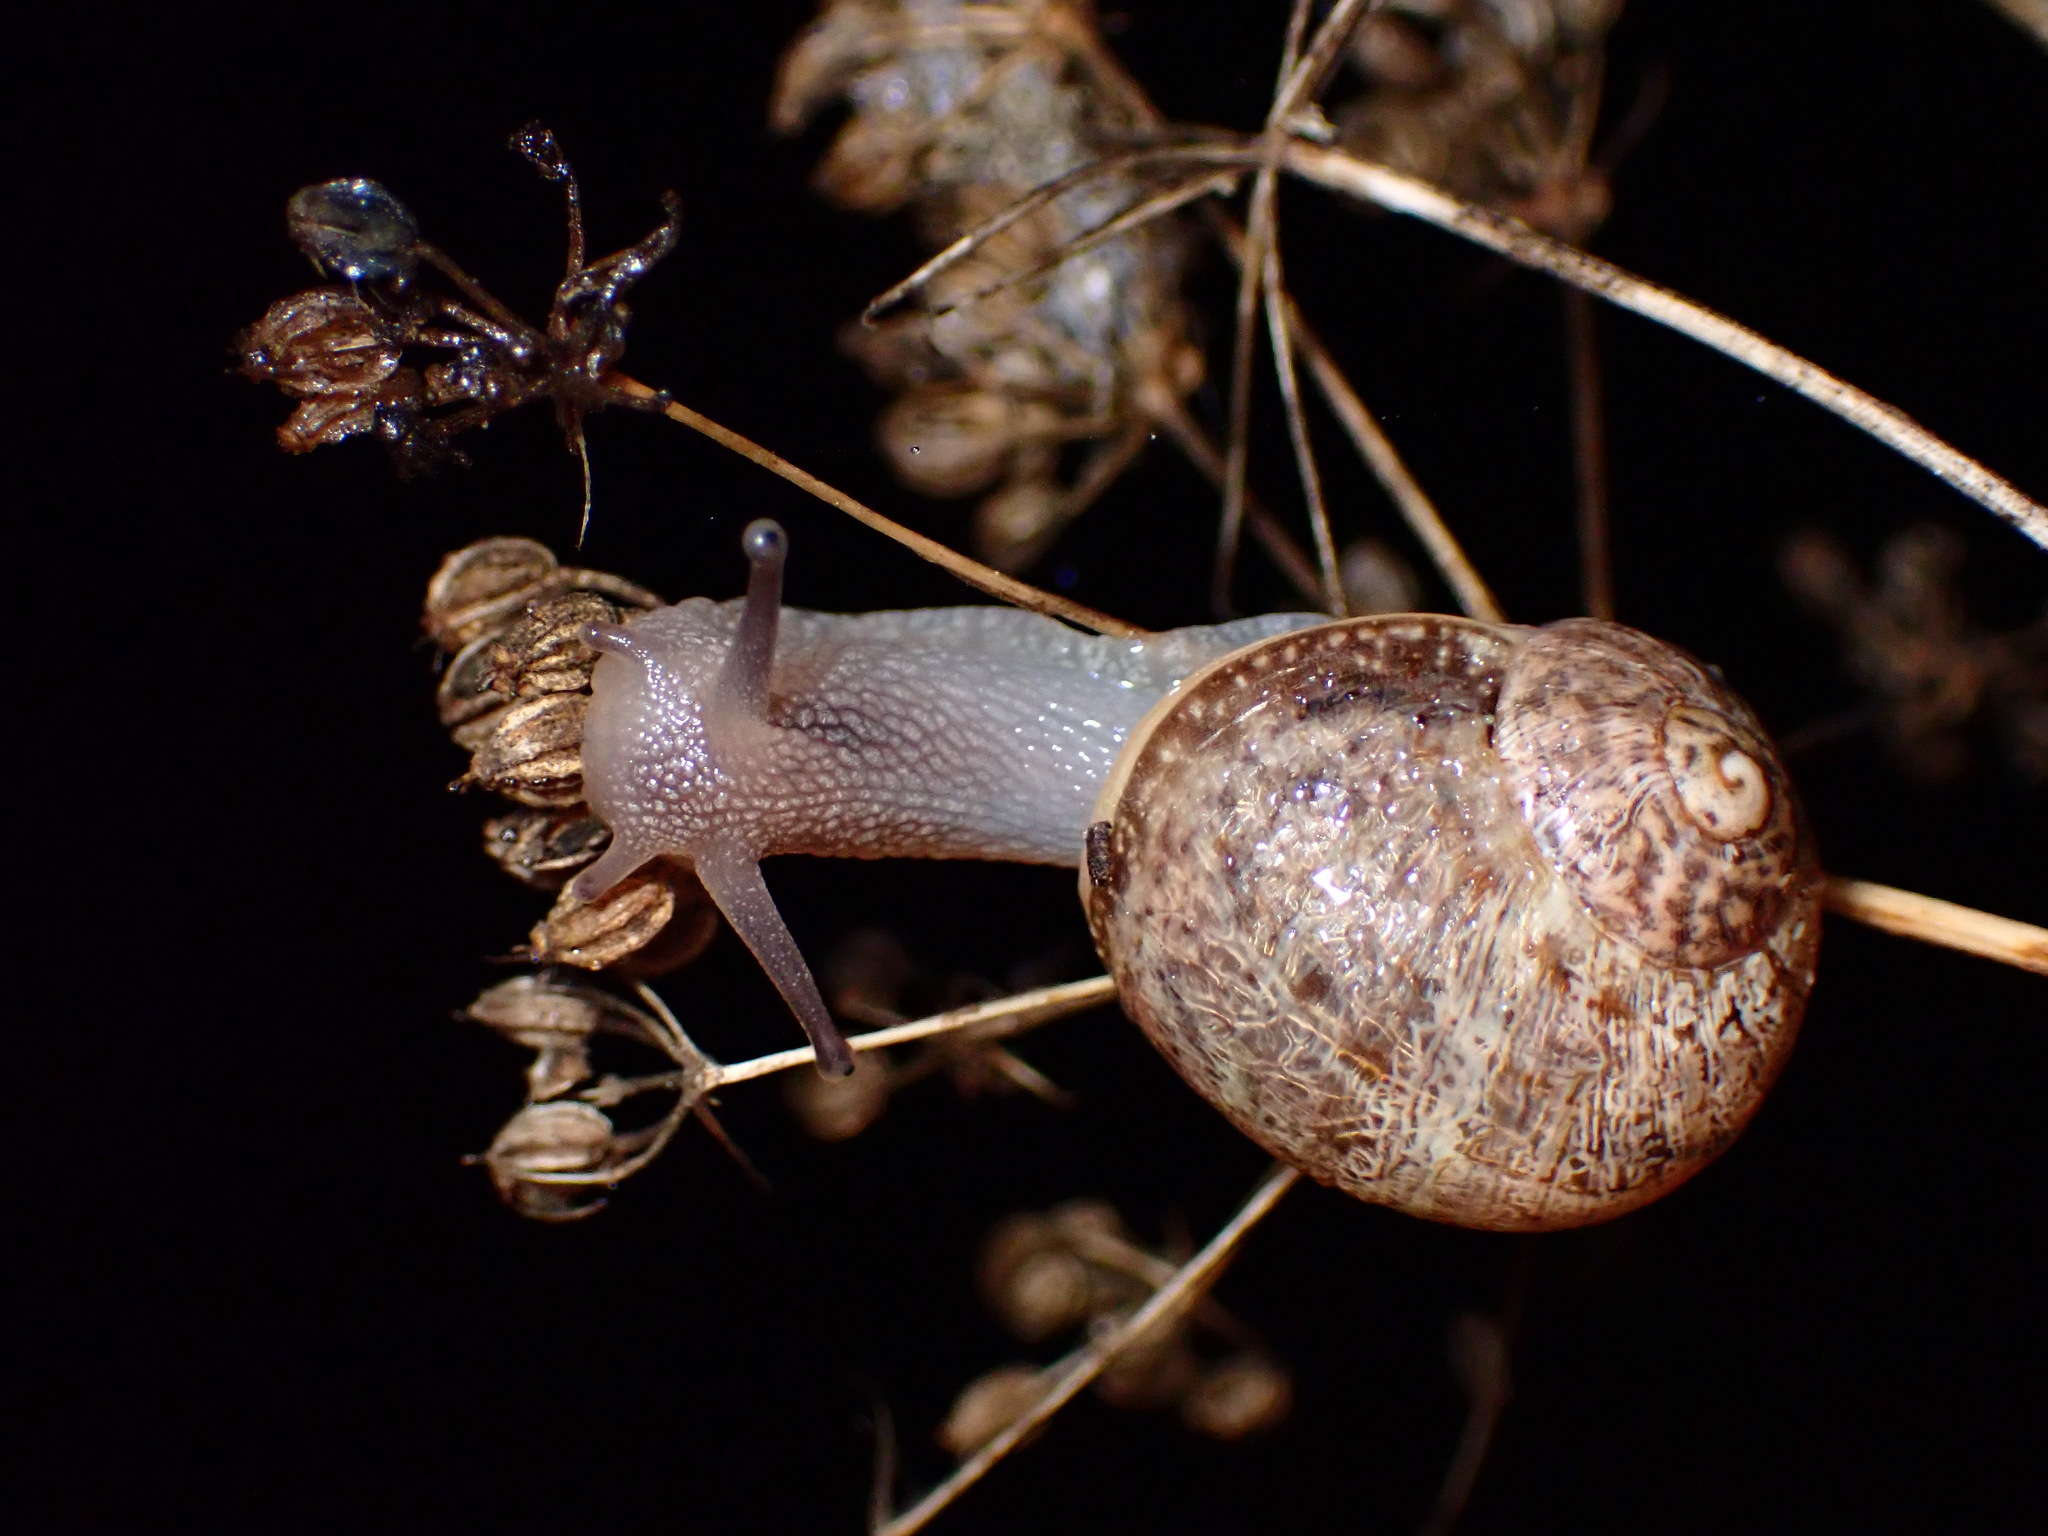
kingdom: Animalia
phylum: Mollusca
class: Gastropoda
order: Stylommatophora
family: Helicidae
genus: Cornu
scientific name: Cornu aspersum
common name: Brown garden snail
